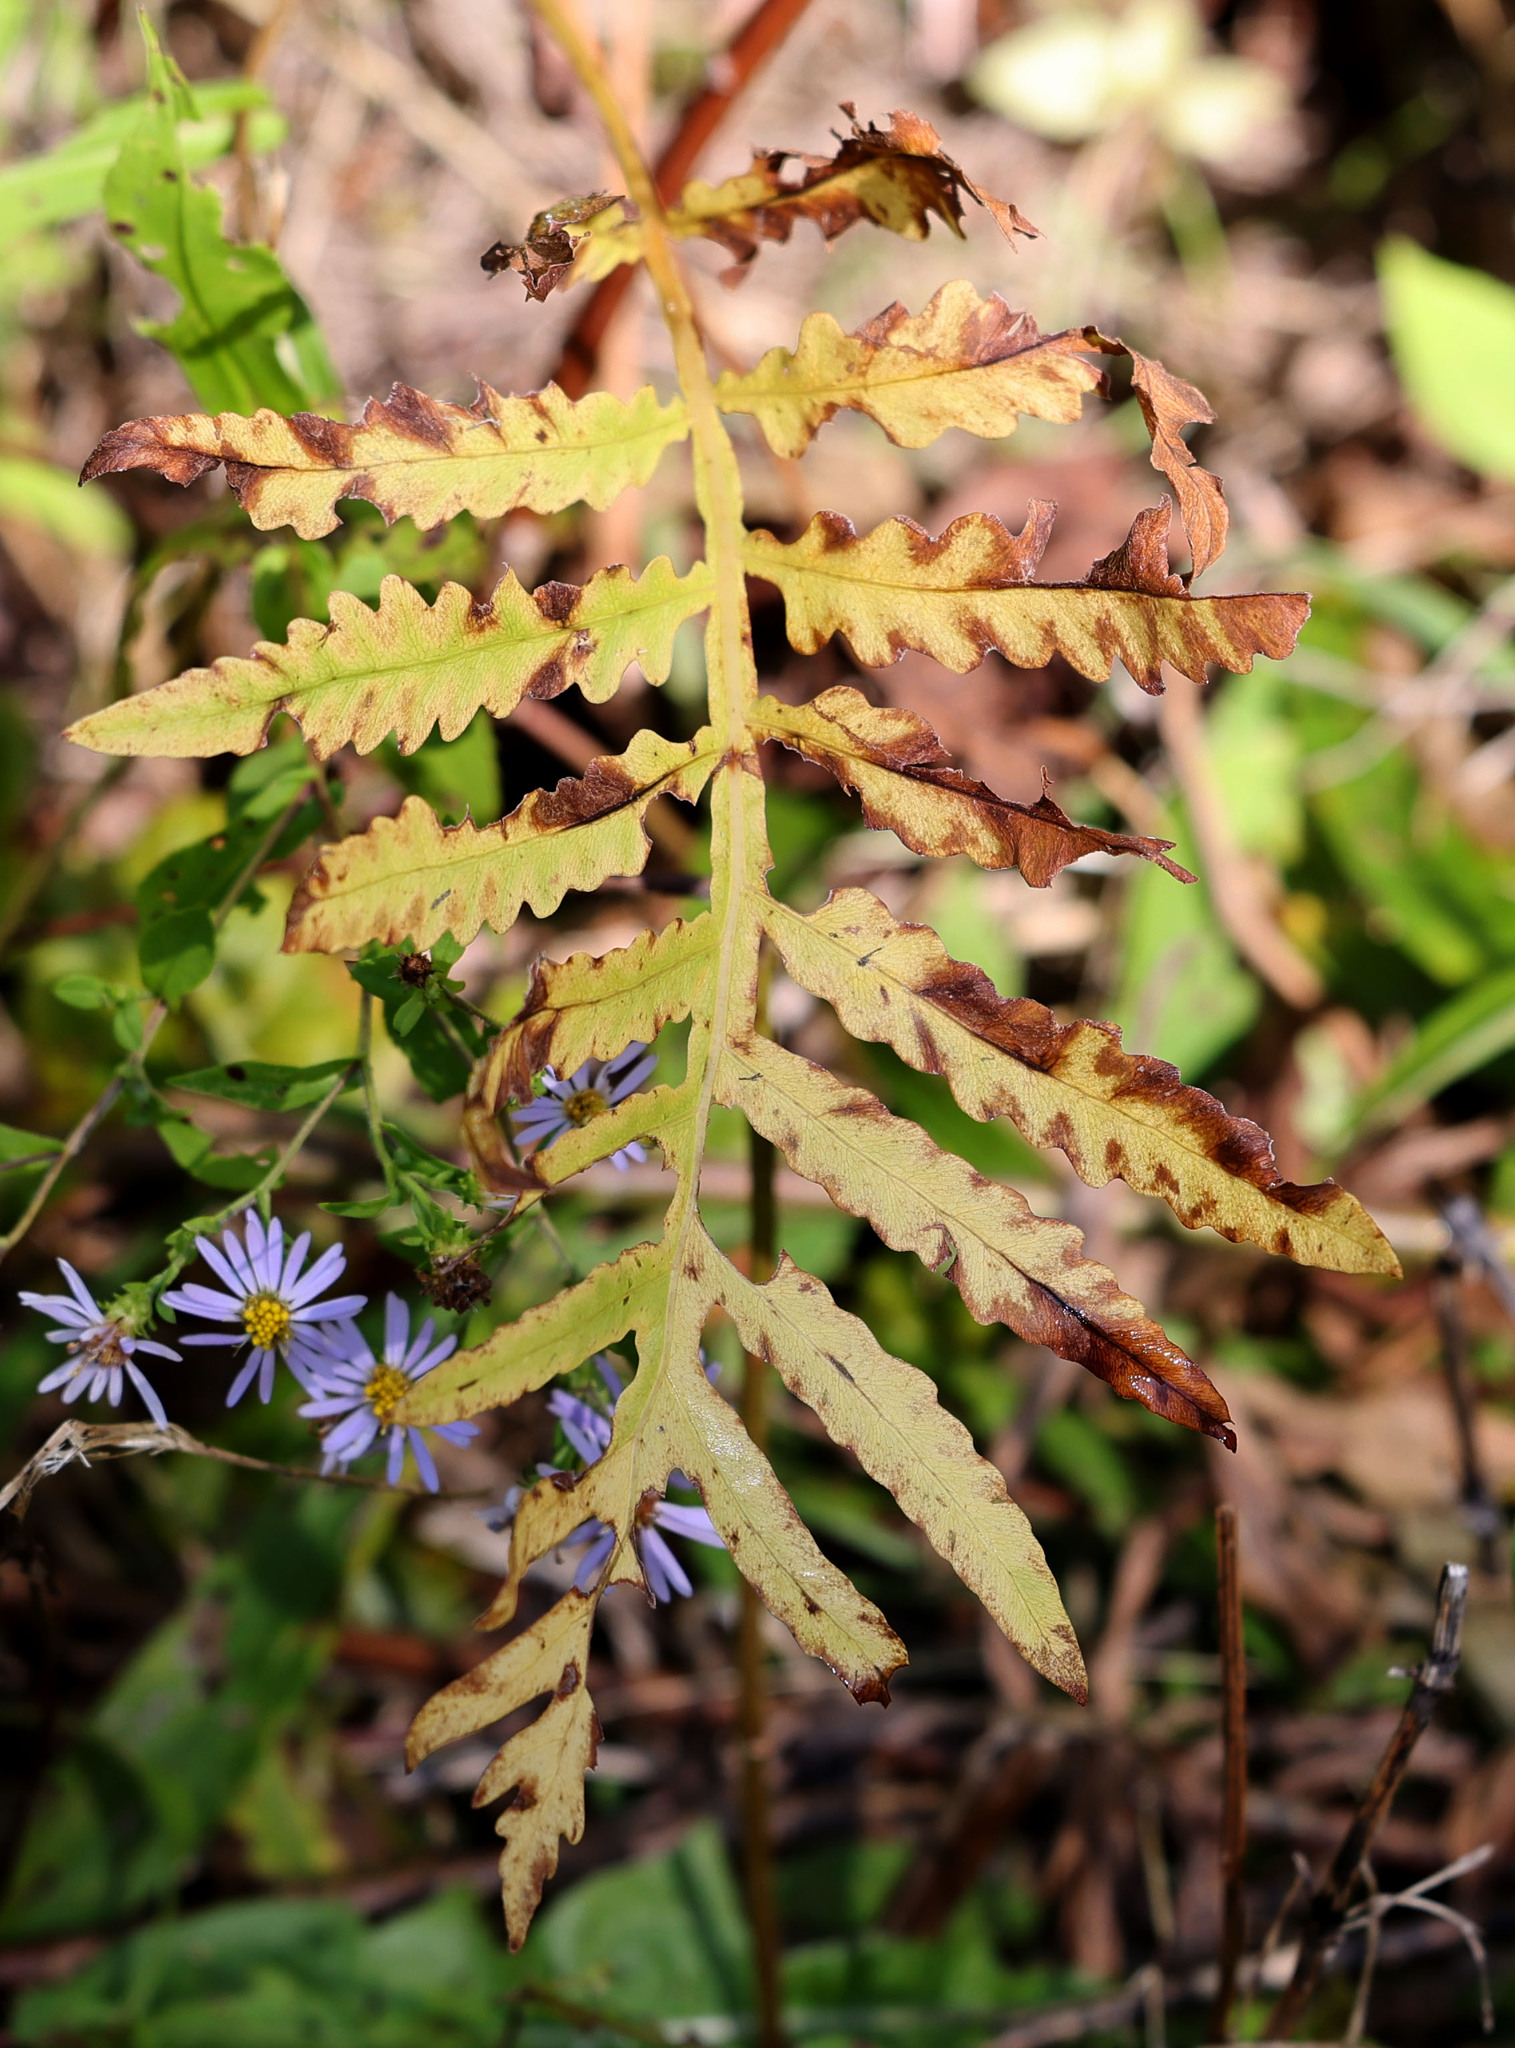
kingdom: Plantae
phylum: Tracheophyta
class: Polypodiopsida
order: Polypodiales
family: Onocleaceae
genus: Onoclea
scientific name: Onoclea sensibilis
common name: Sensitive fern
